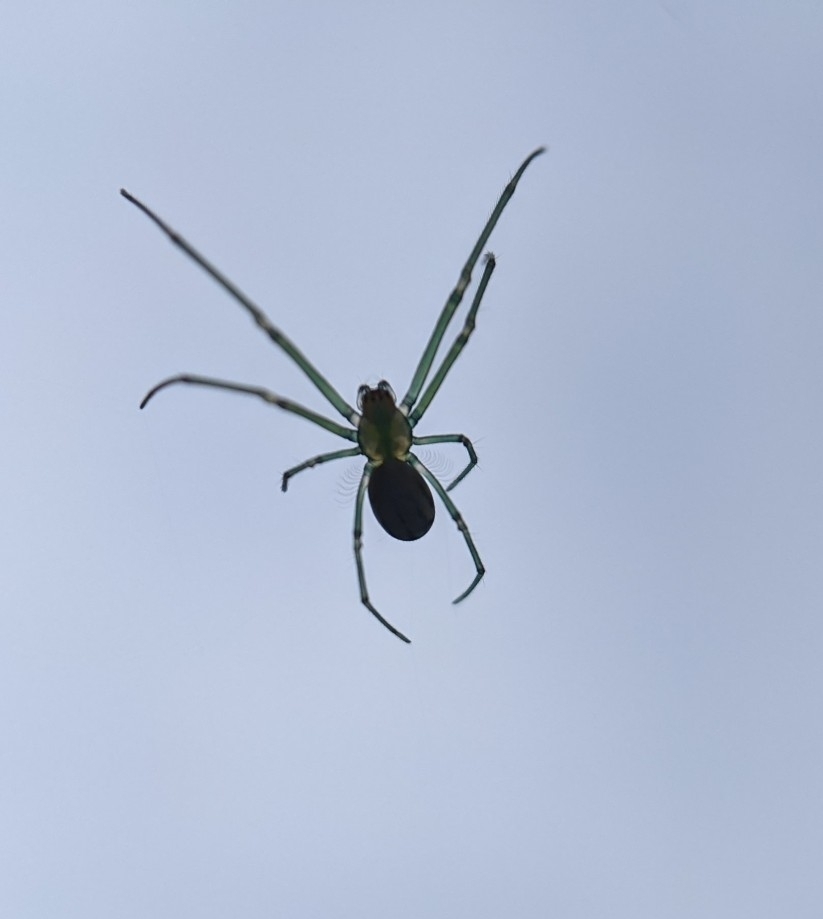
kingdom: Animalia
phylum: Arthropoda
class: Arachnida
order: Araneae
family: Tetragnathidae
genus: Leucauge
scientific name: Leucauge argyrobapta
